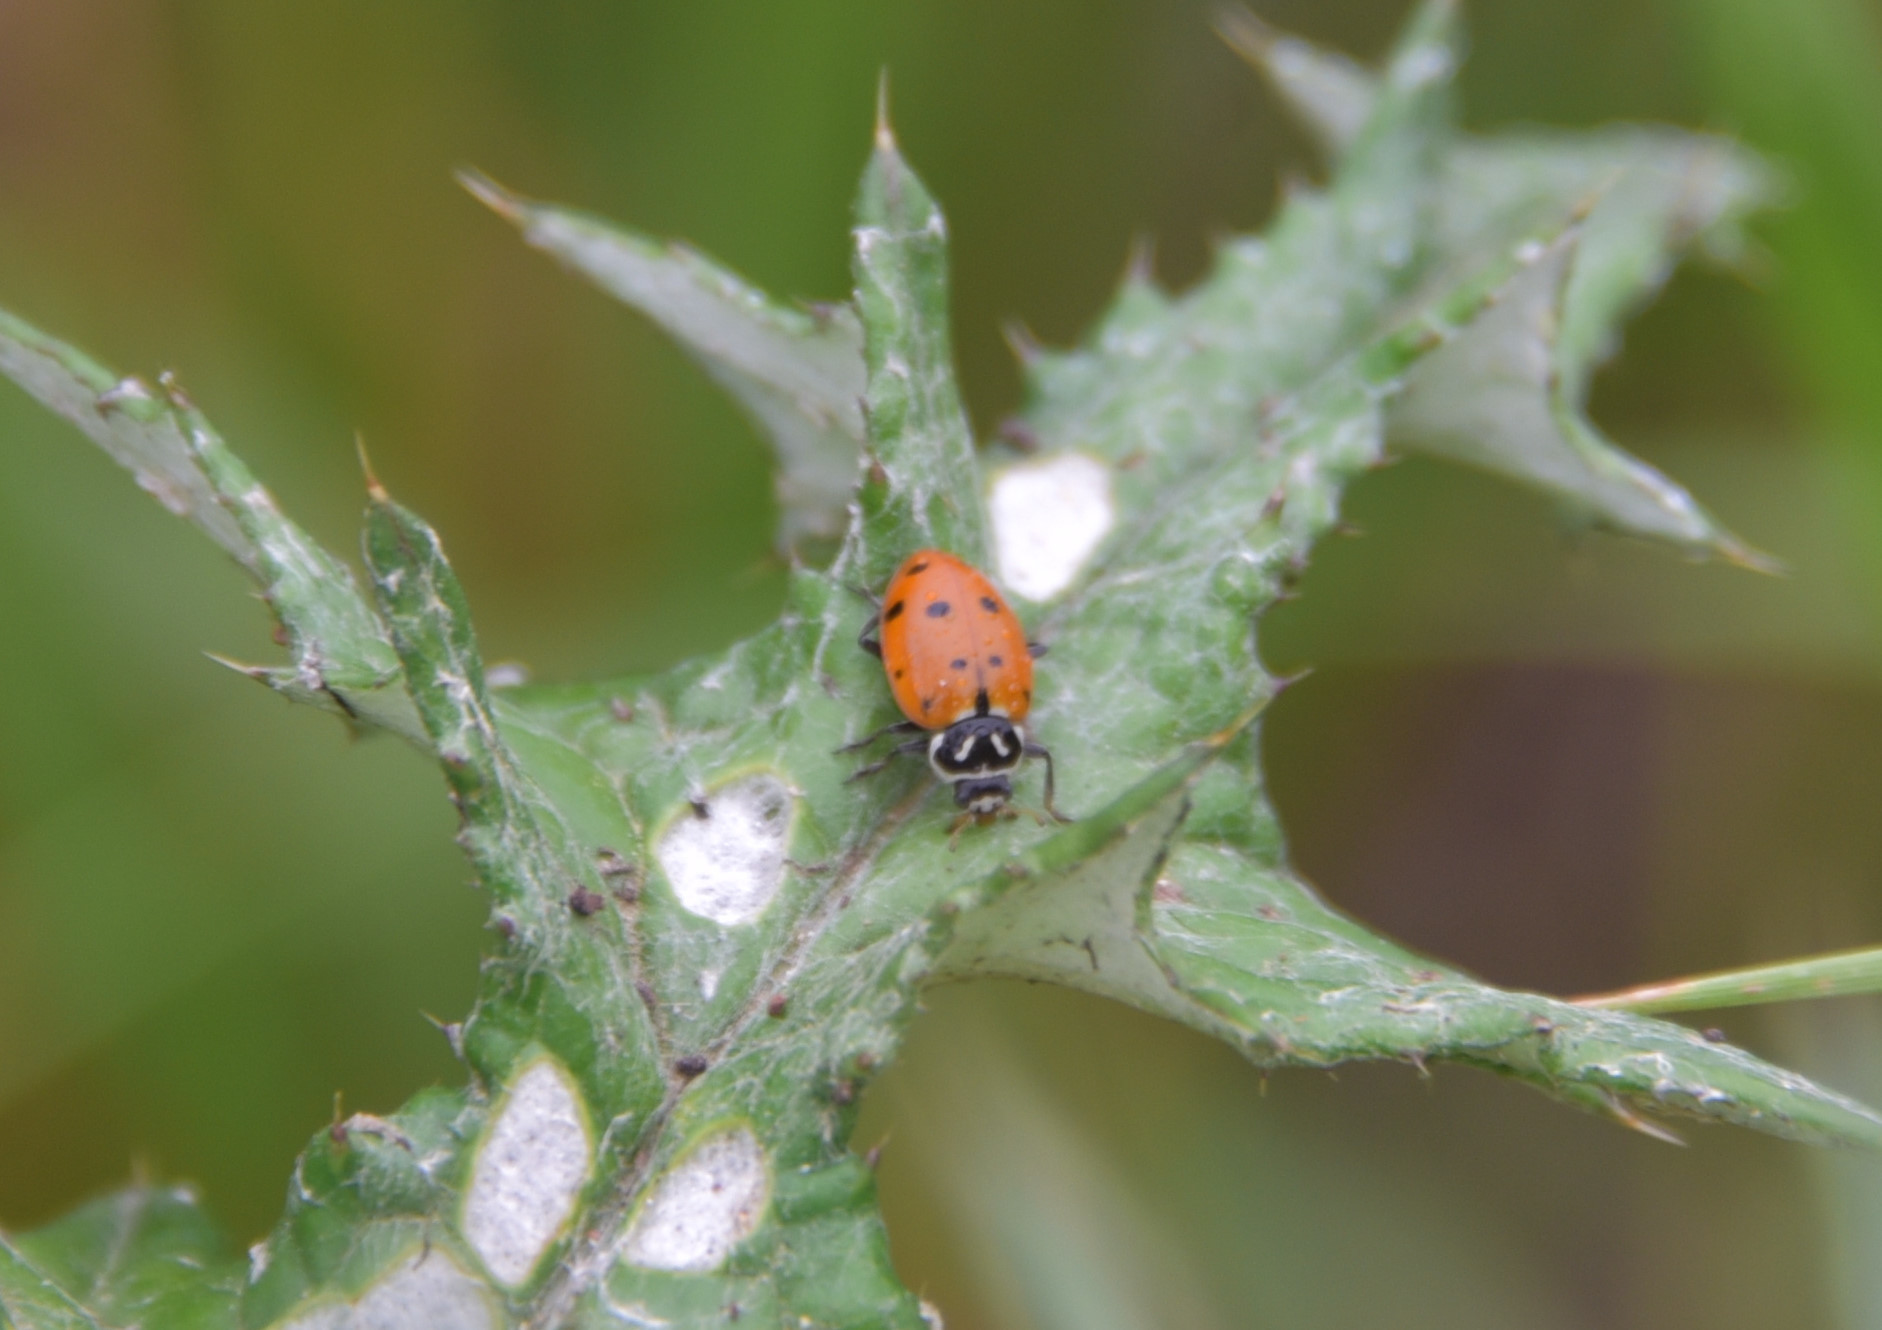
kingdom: Animalia
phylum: Arthropoda
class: Insecta
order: Coleoptera
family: Coccinellidae
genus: Hippodamia
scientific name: Hippodamia convergens
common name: Convergent lady beetle
